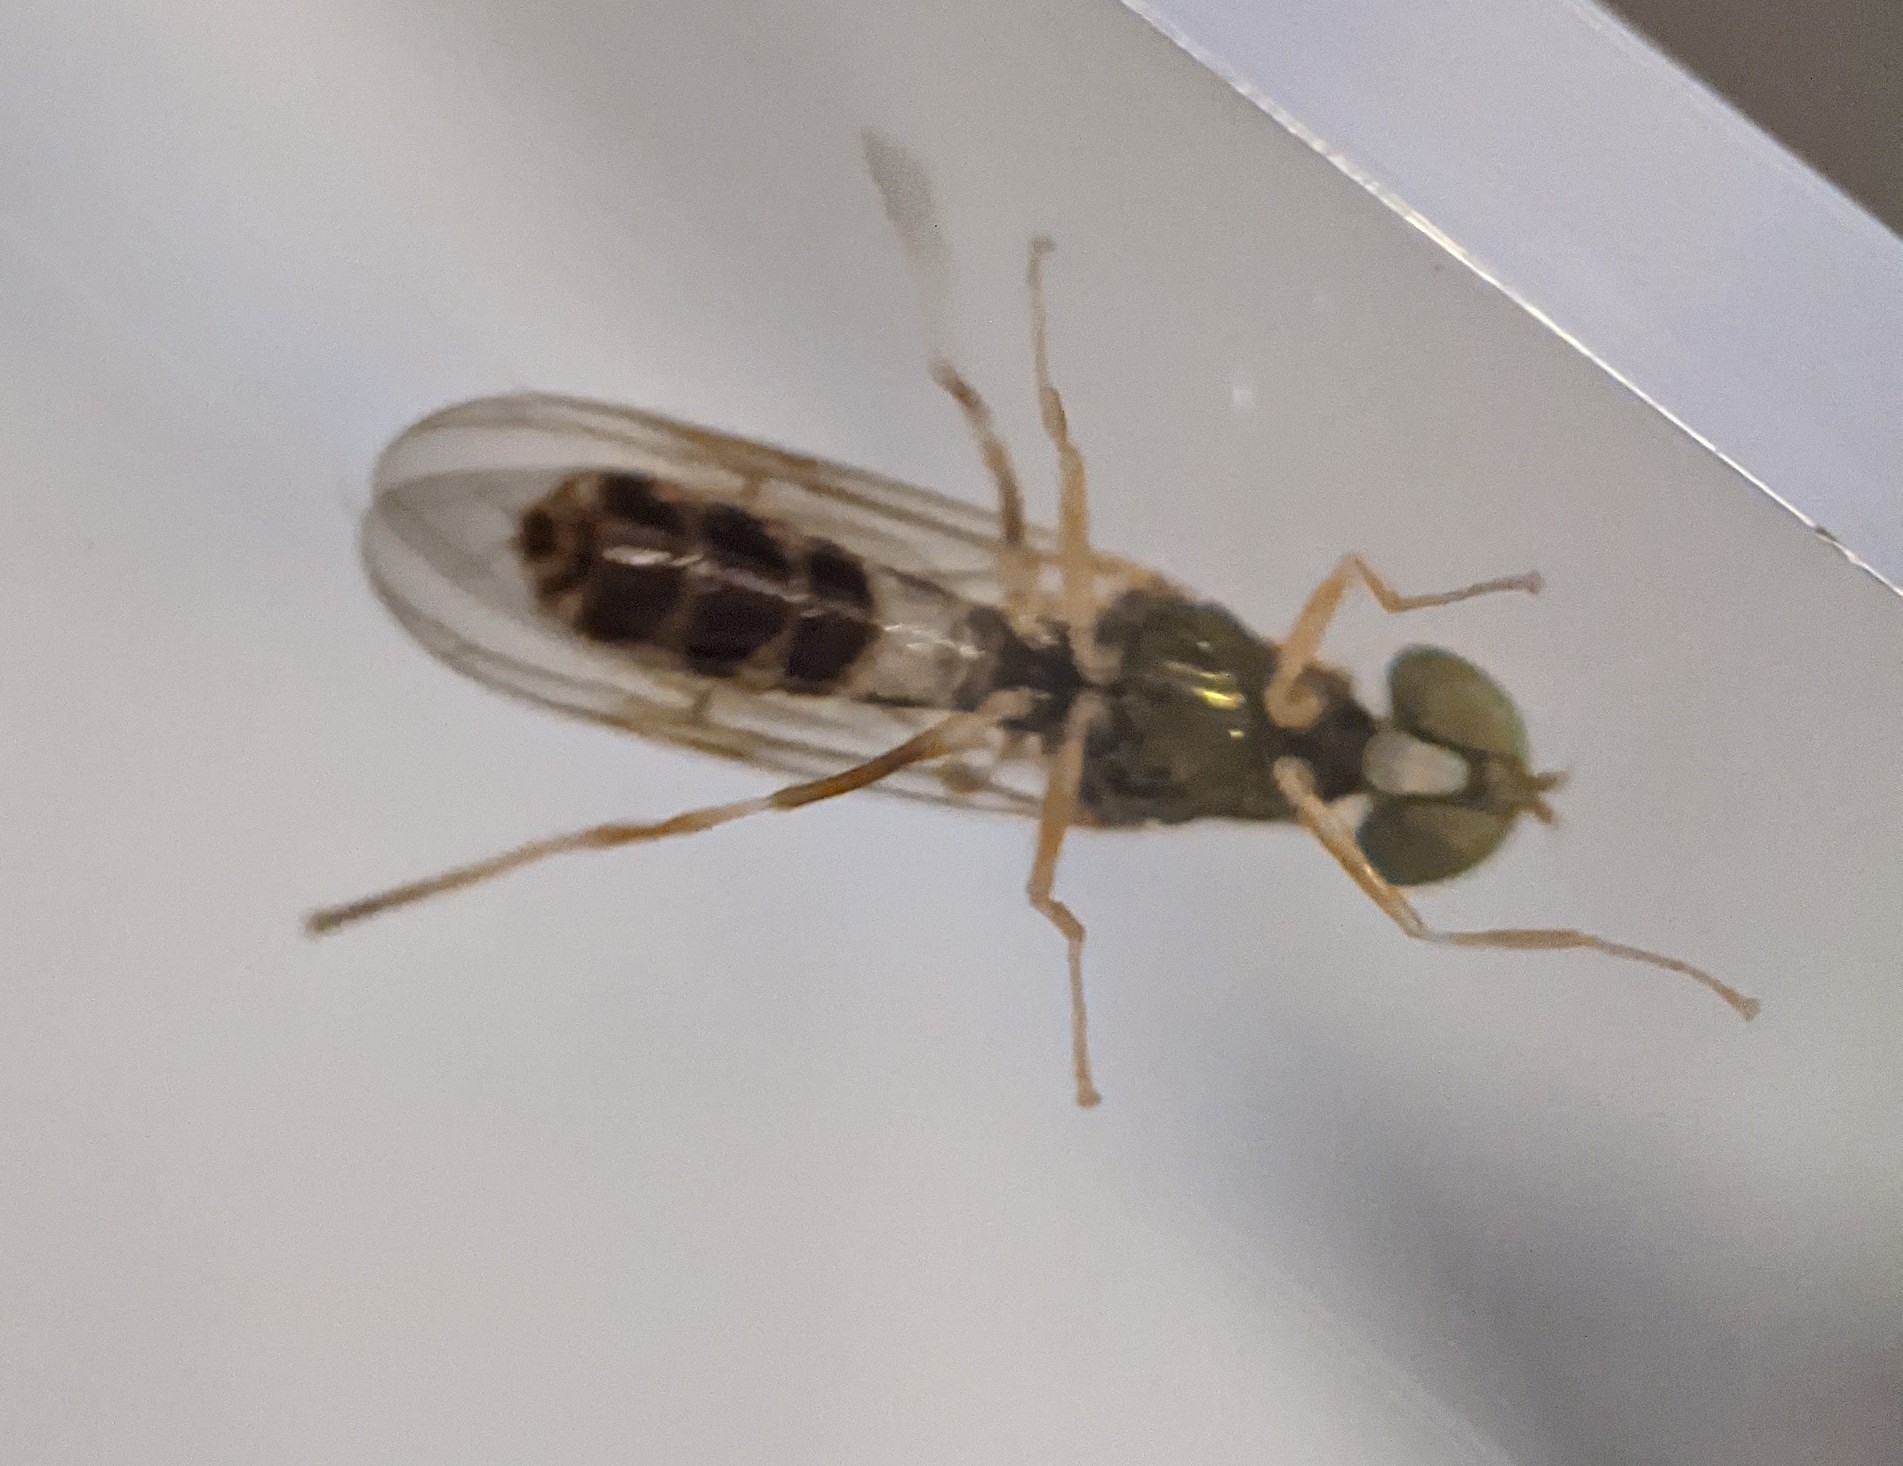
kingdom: Animalia
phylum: Arthropoda
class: Insecta
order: Diptera
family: Stratiomyidae
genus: Sargus
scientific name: Sargus fasciatus
